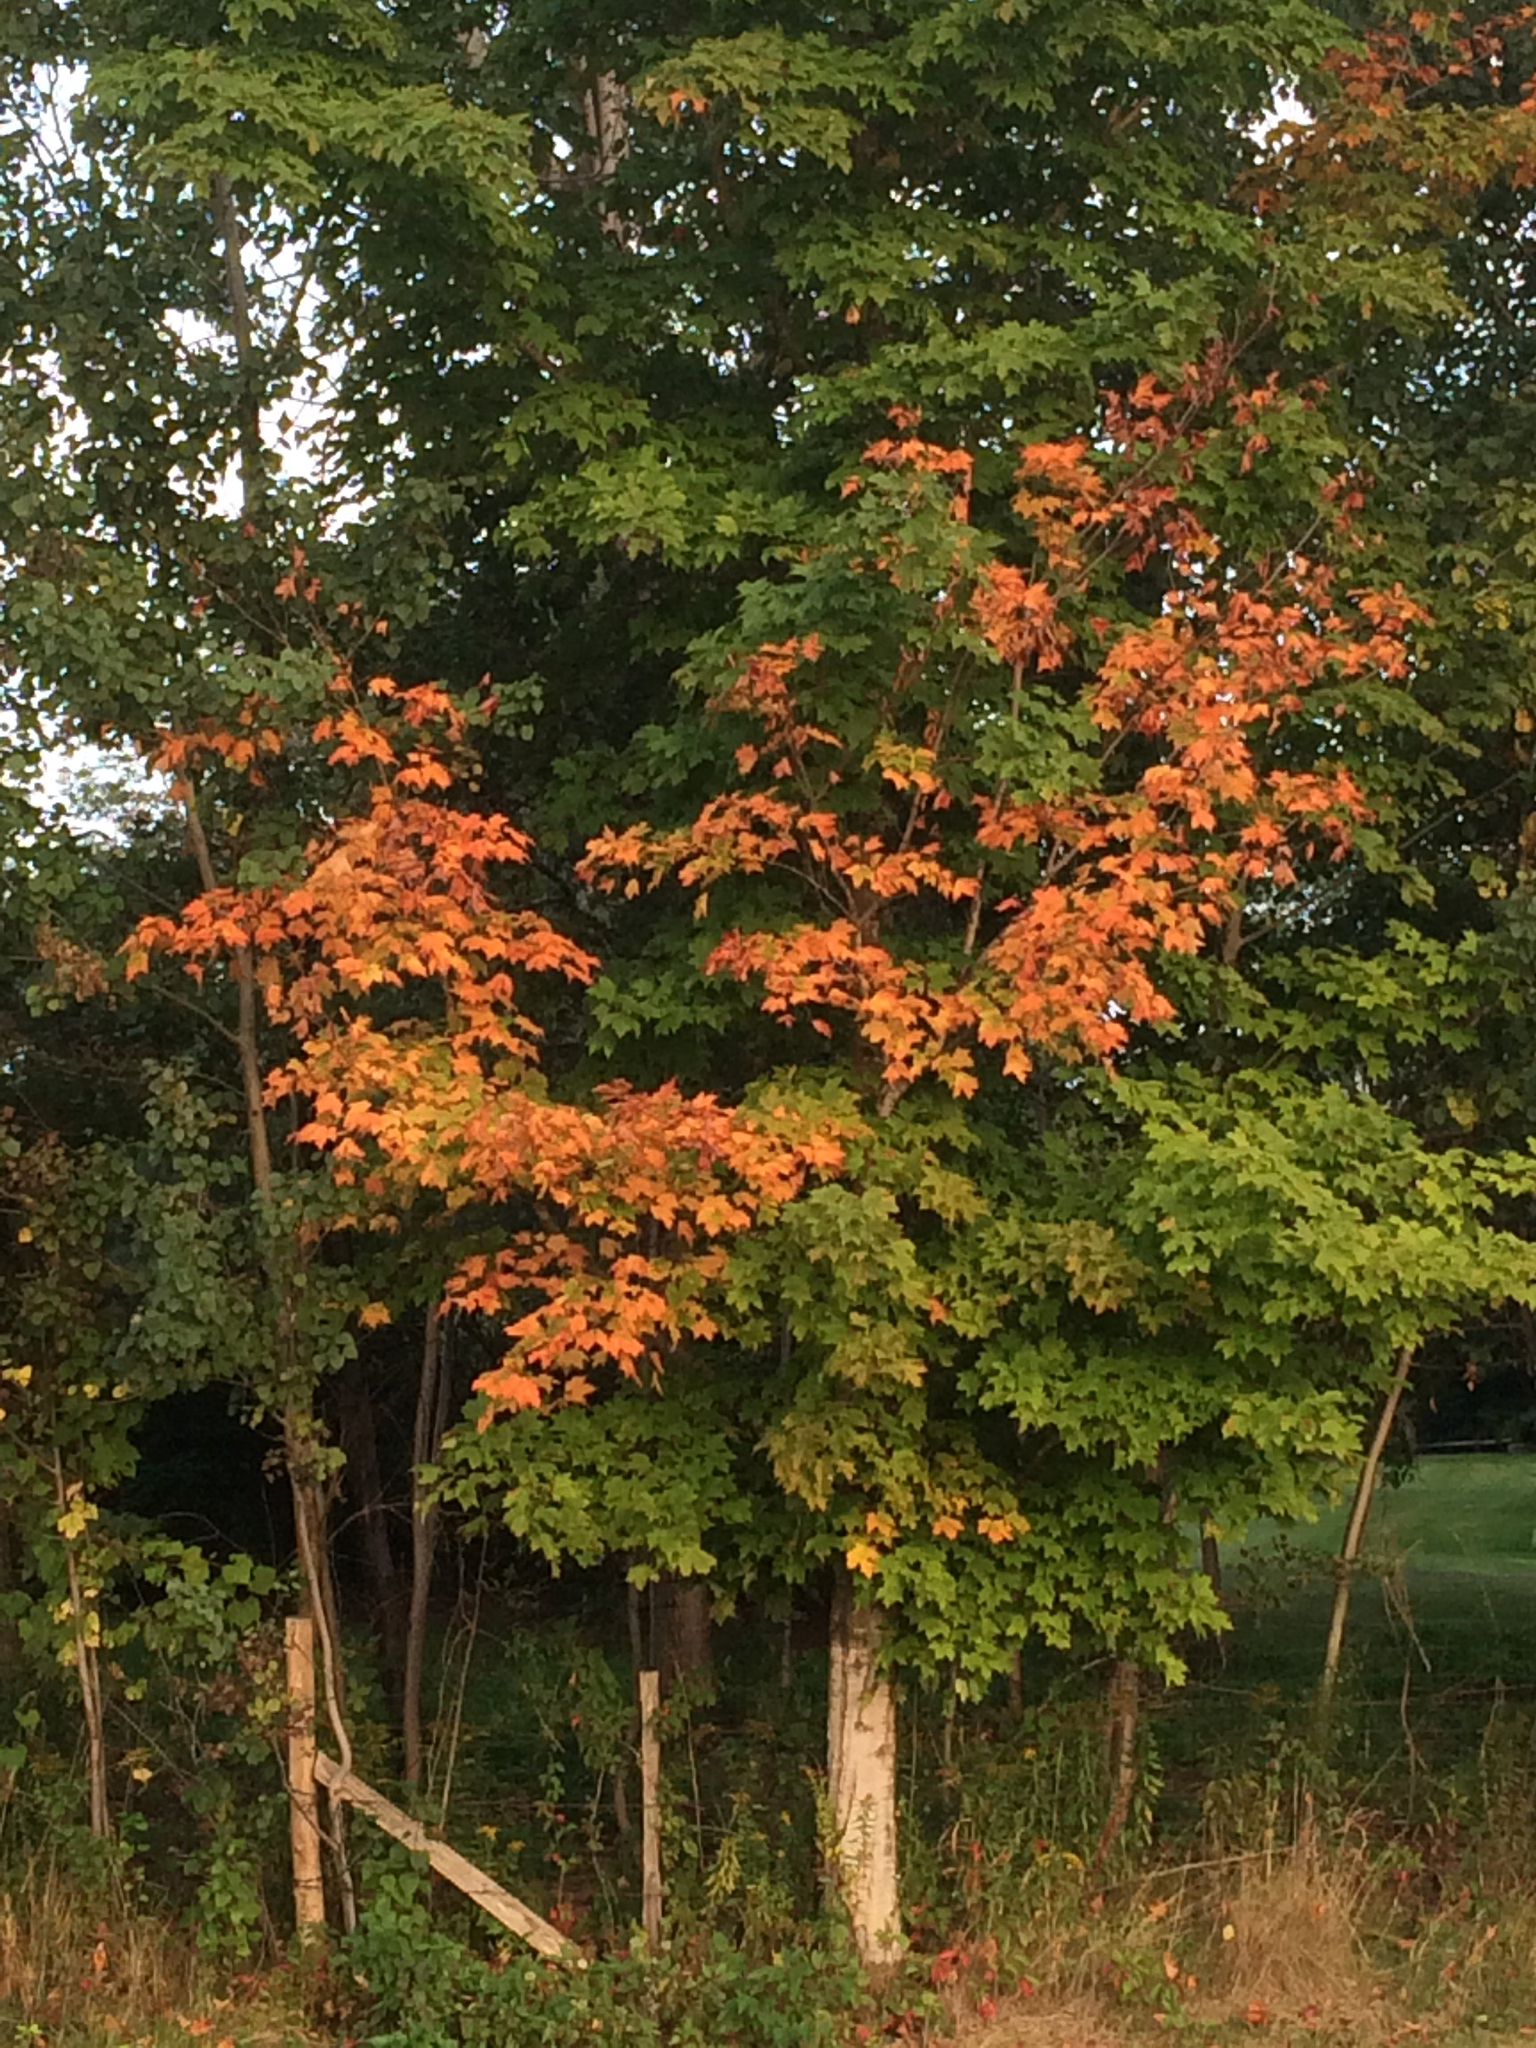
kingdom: Plantae
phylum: Tracheophyta
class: Magnoliopsida
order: Sapindales
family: Sapindaceae
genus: Acer
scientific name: Acer saccharum
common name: Sugar maple
